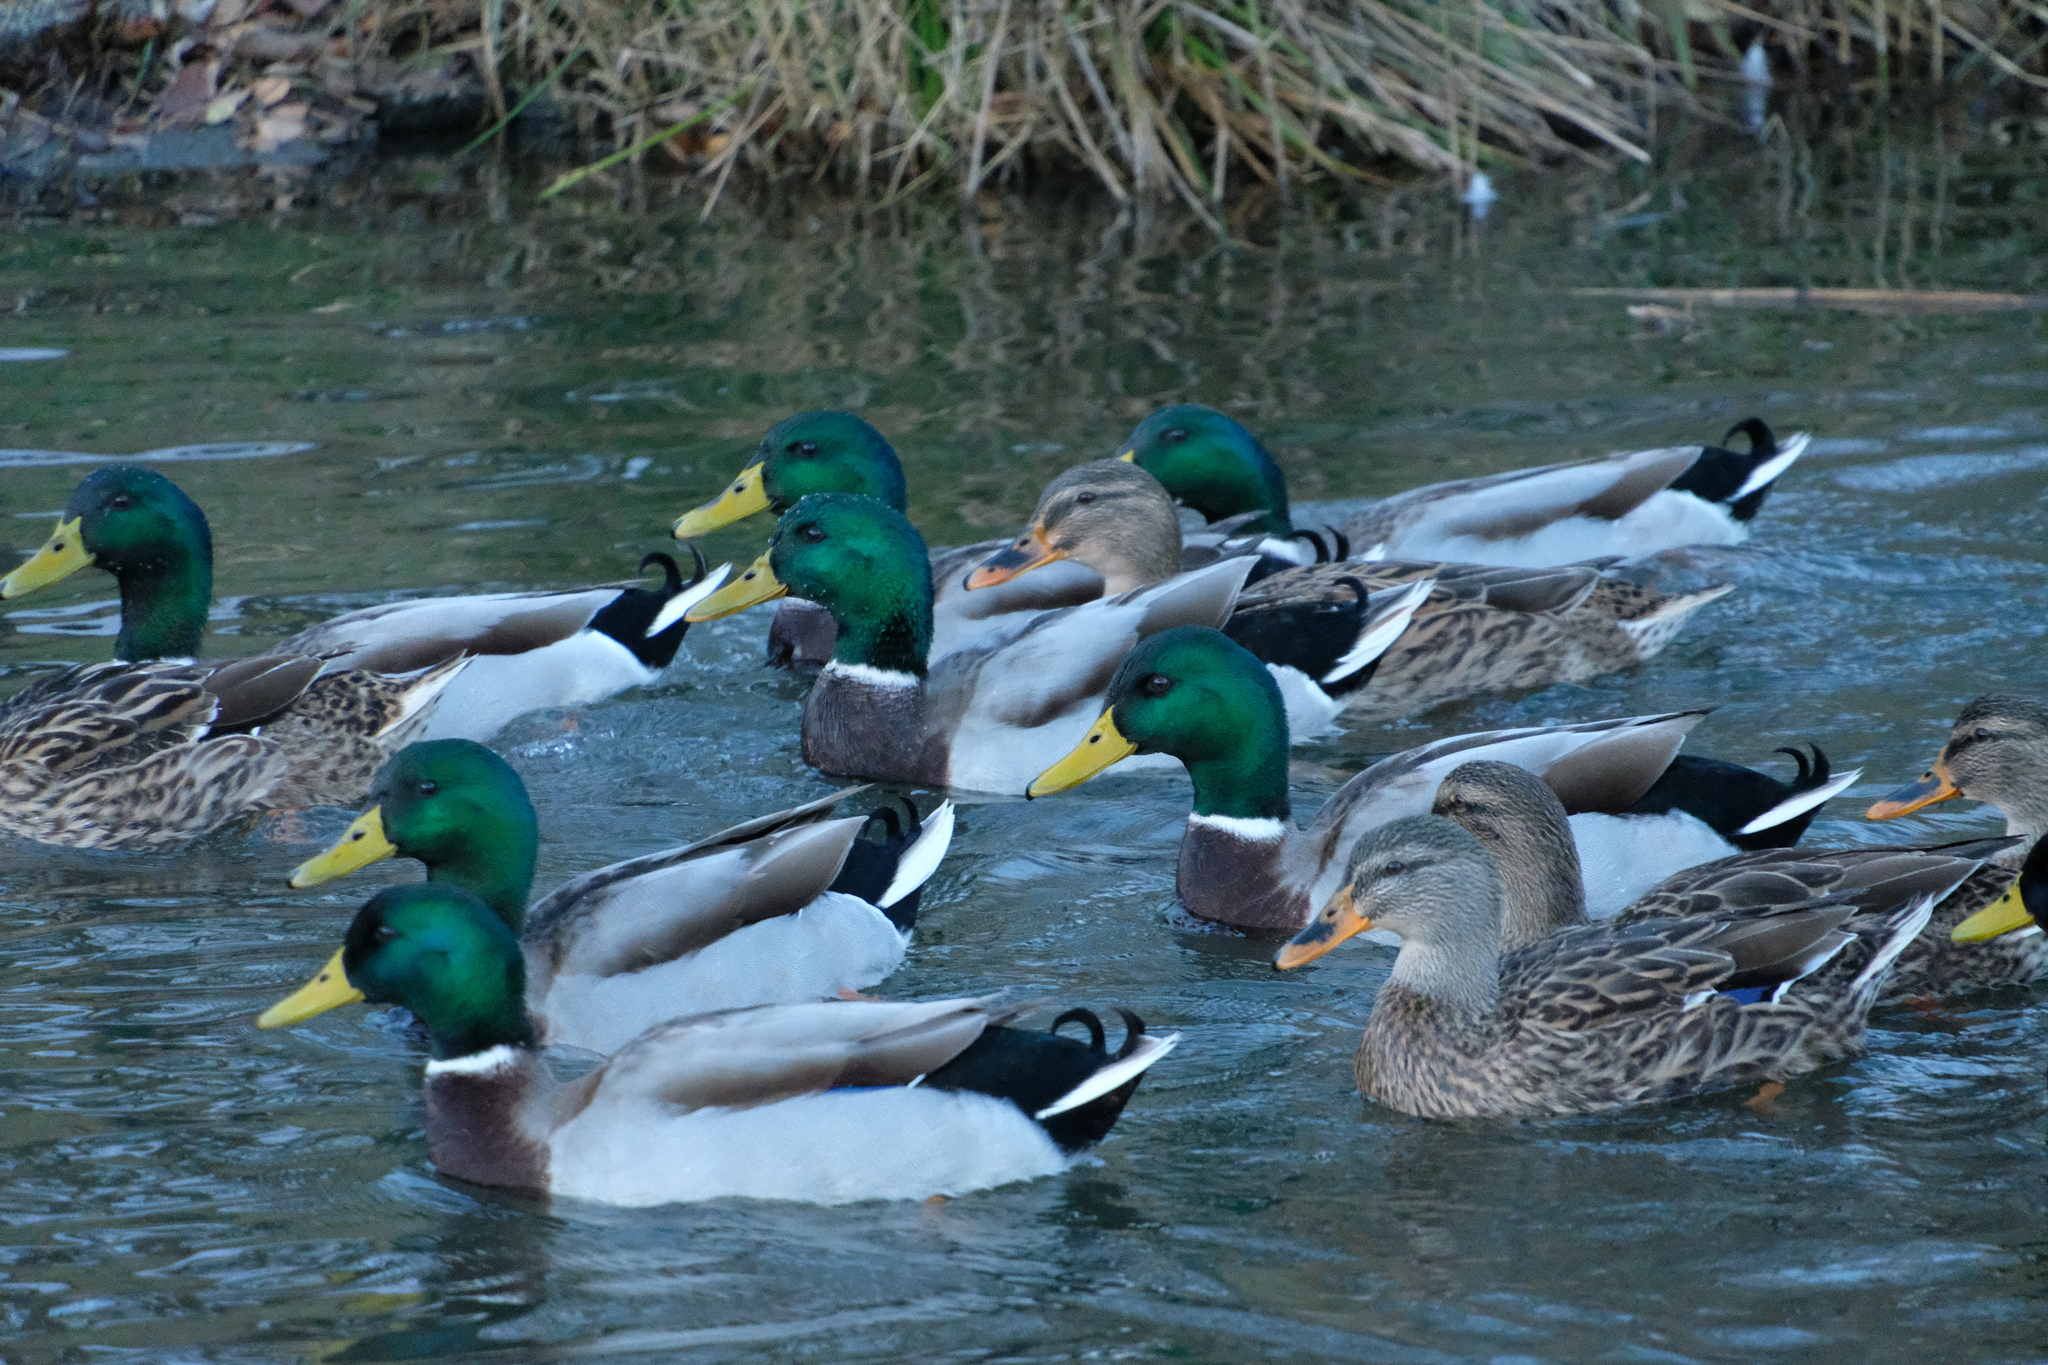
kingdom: Animalia
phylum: Chordata
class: Aves
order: Anseriformes
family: Anatidae
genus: Anas
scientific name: Anas platyrhynchos
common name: Mallard
